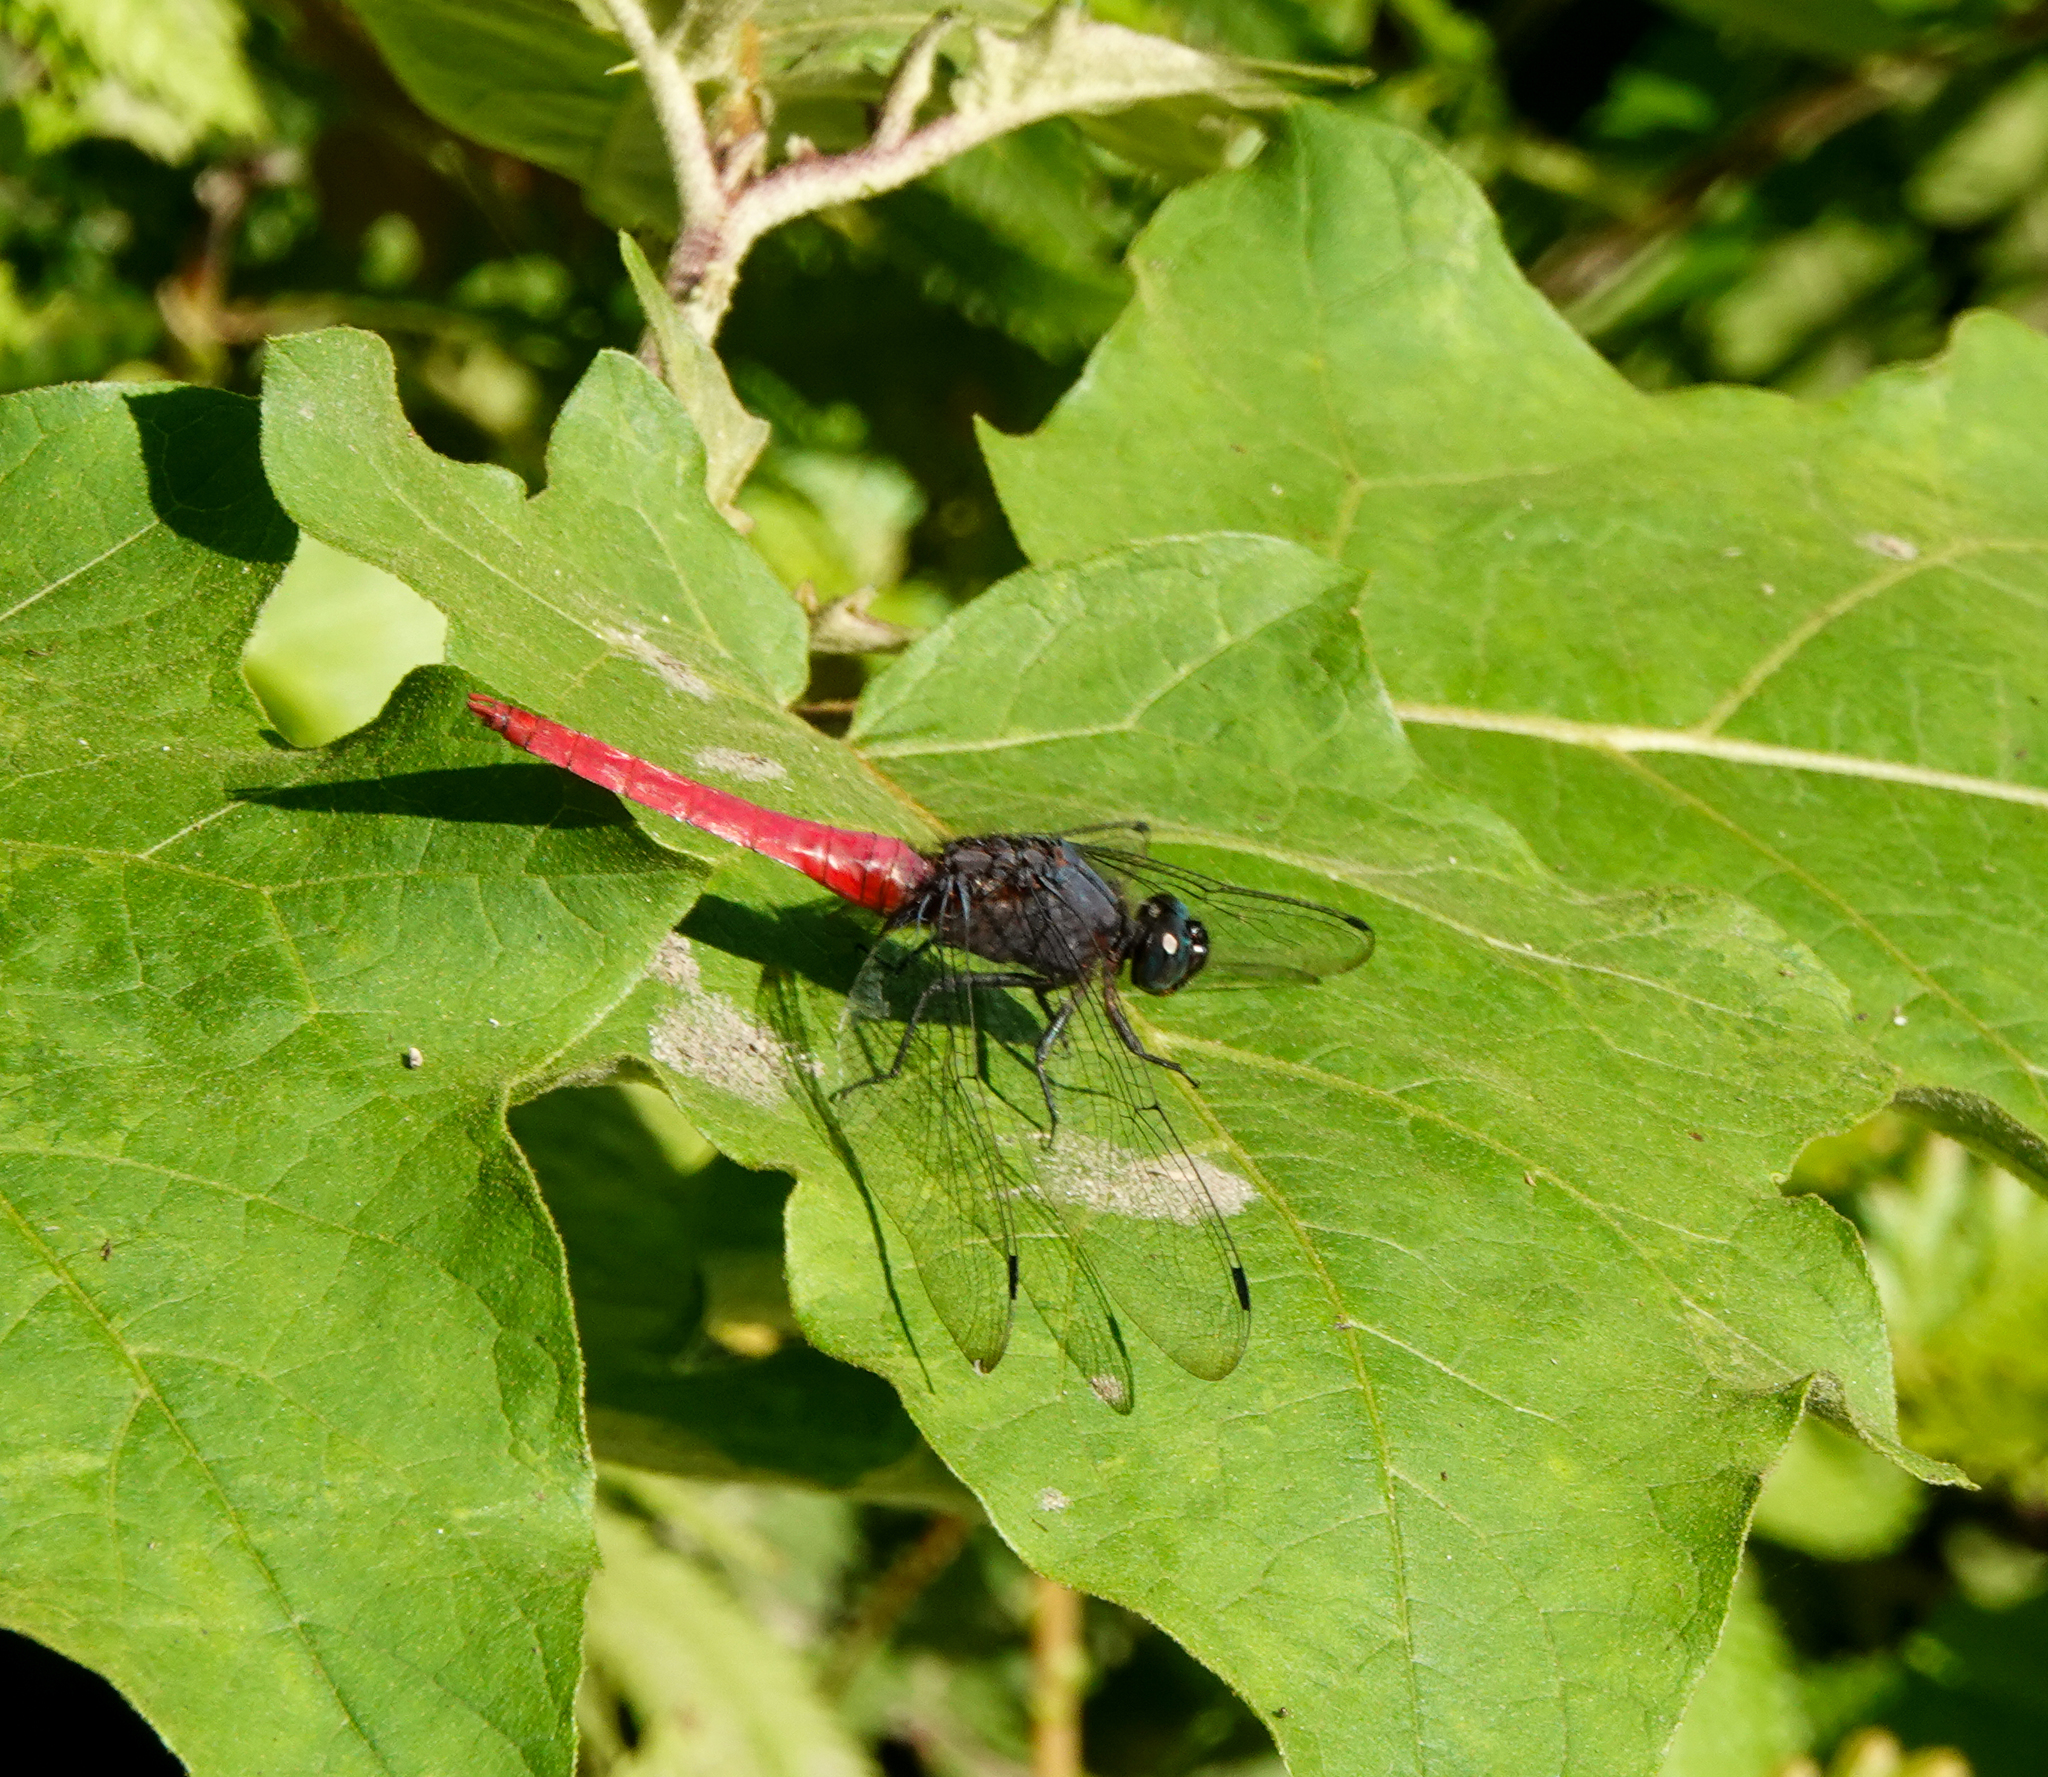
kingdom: Animalia
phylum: Arthropoda
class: Insecta
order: Odonata
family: Libellulidae
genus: Orthetrum
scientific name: Orthetrum pruinosum
